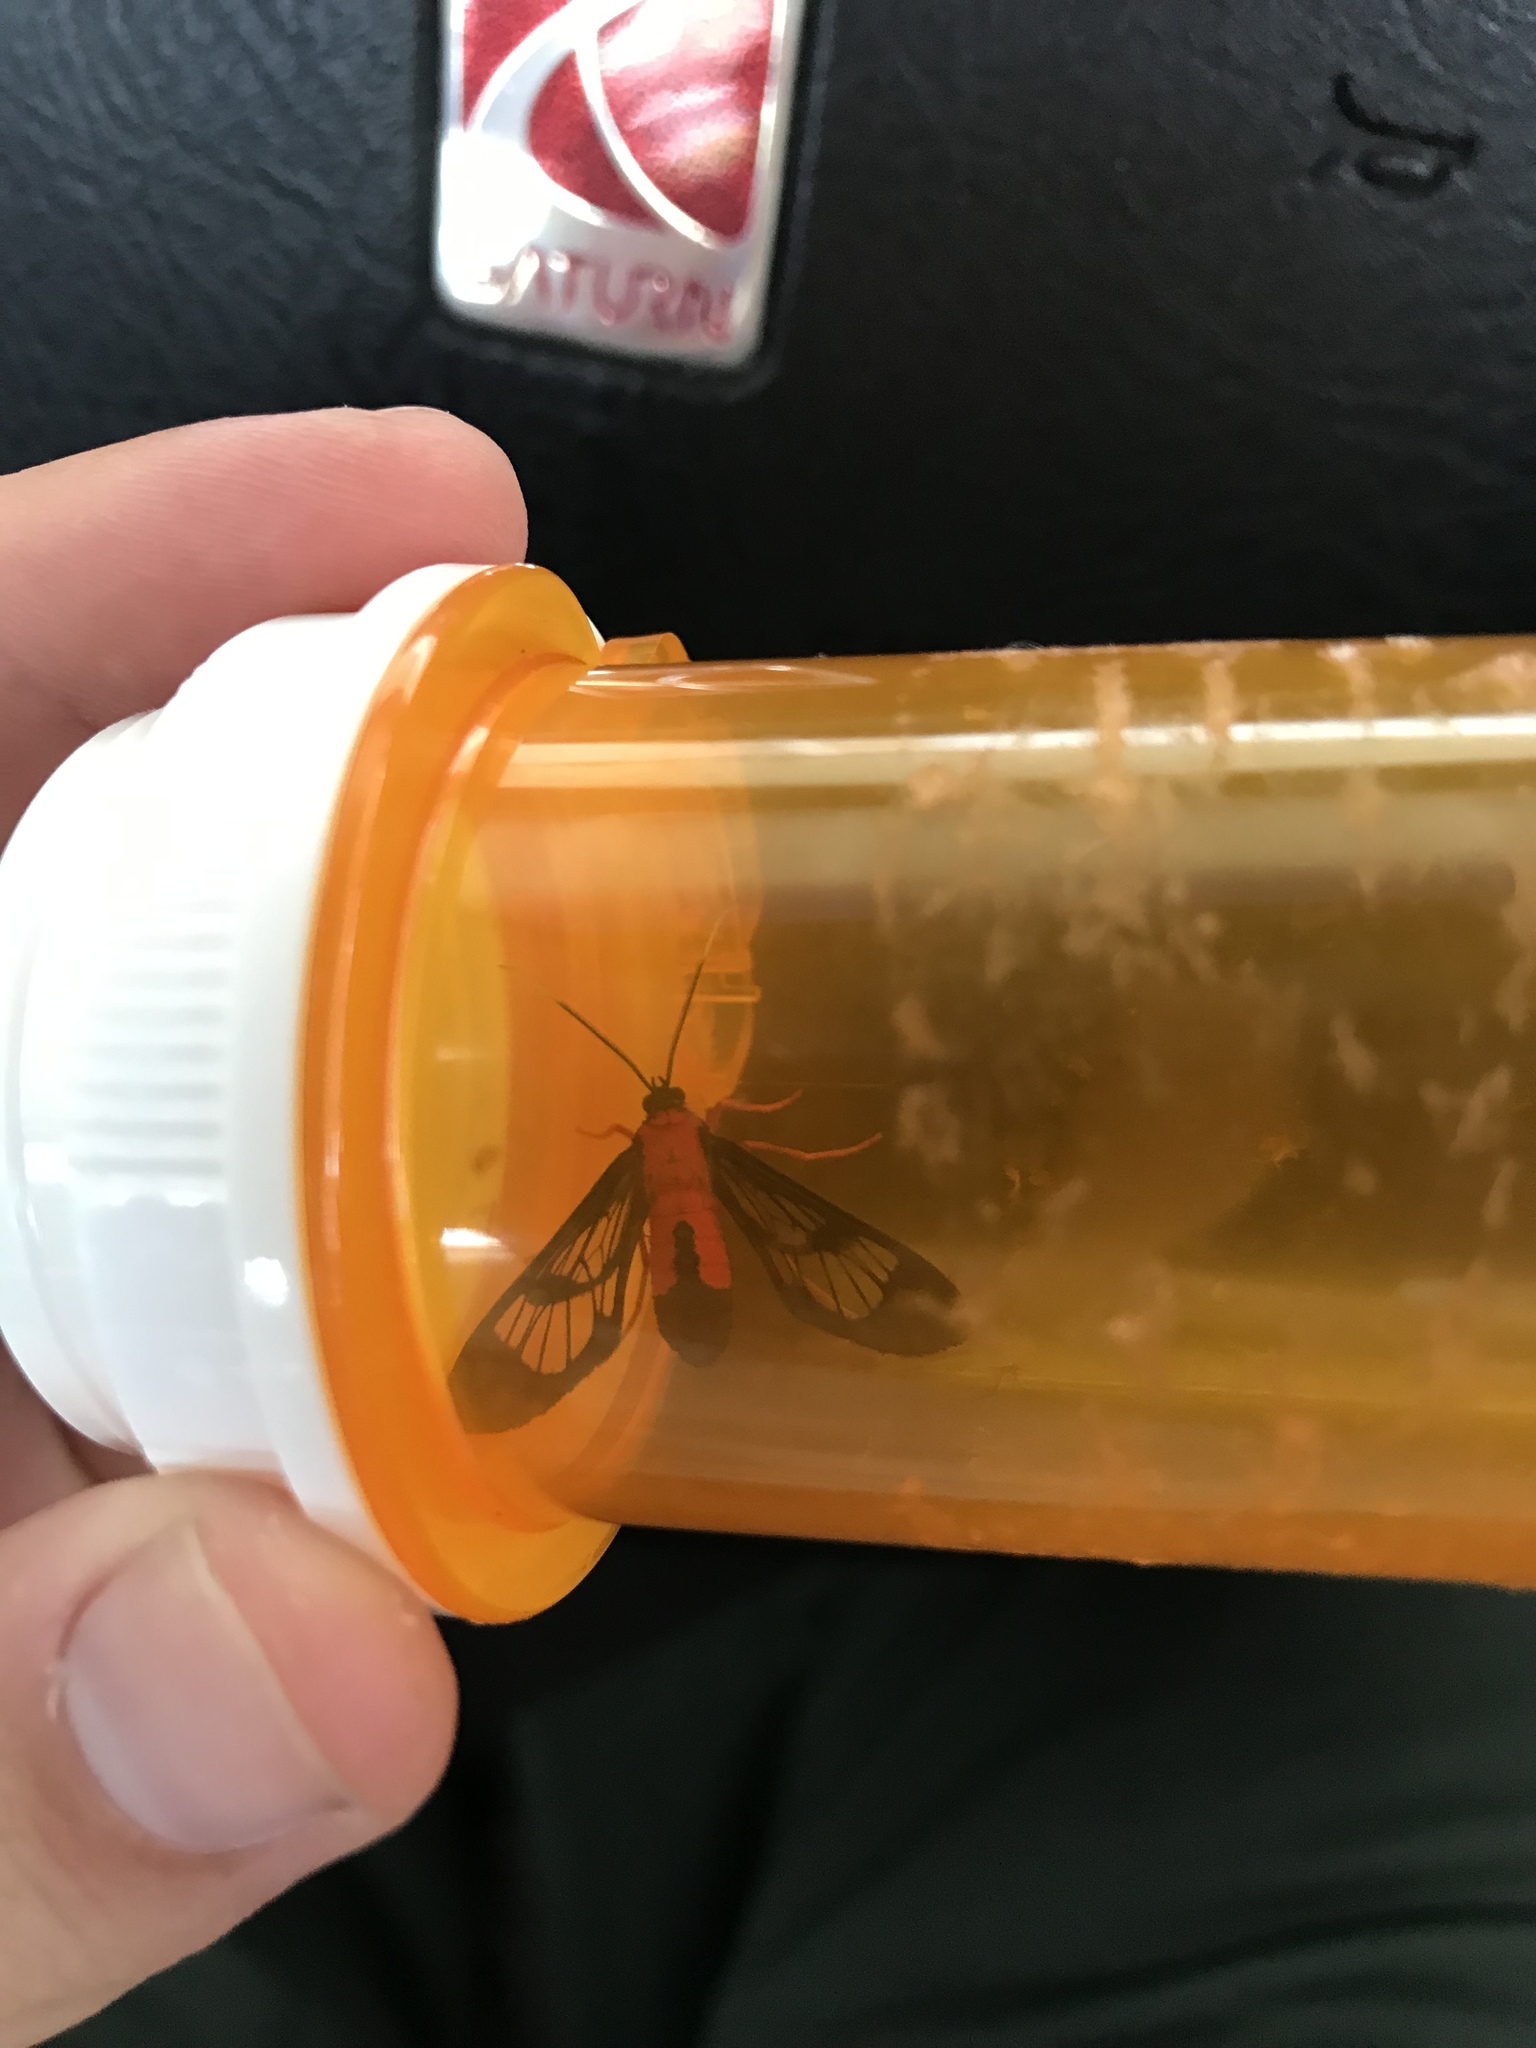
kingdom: Animalia
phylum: Arthropoda
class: Insecta
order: Lepidoptera
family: Erebidae
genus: Cosmosoma
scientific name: Cosmosoma myrodora
